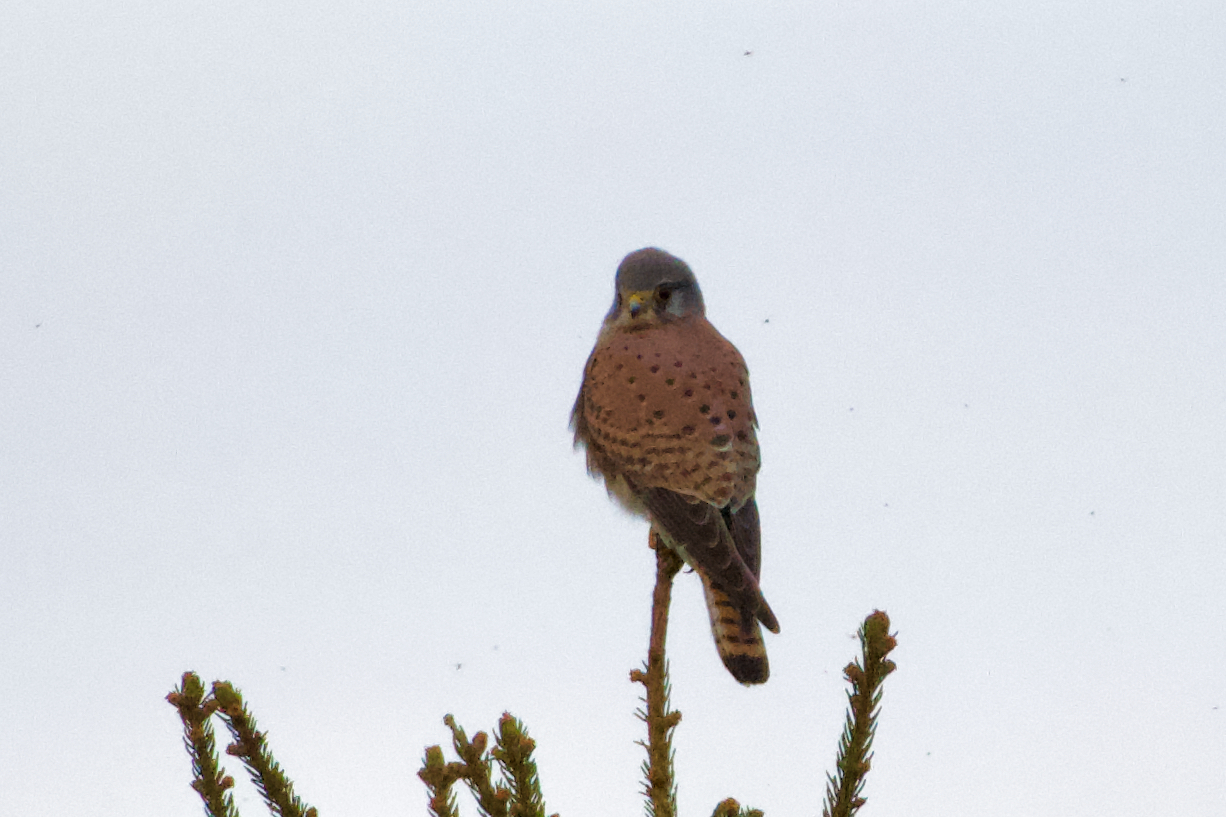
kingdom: Animalia
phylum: Chordata
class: Aves
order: Falconiformes
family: Falconidae
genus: Falco
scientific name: Falco tinnunculus
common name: Common kestrel
